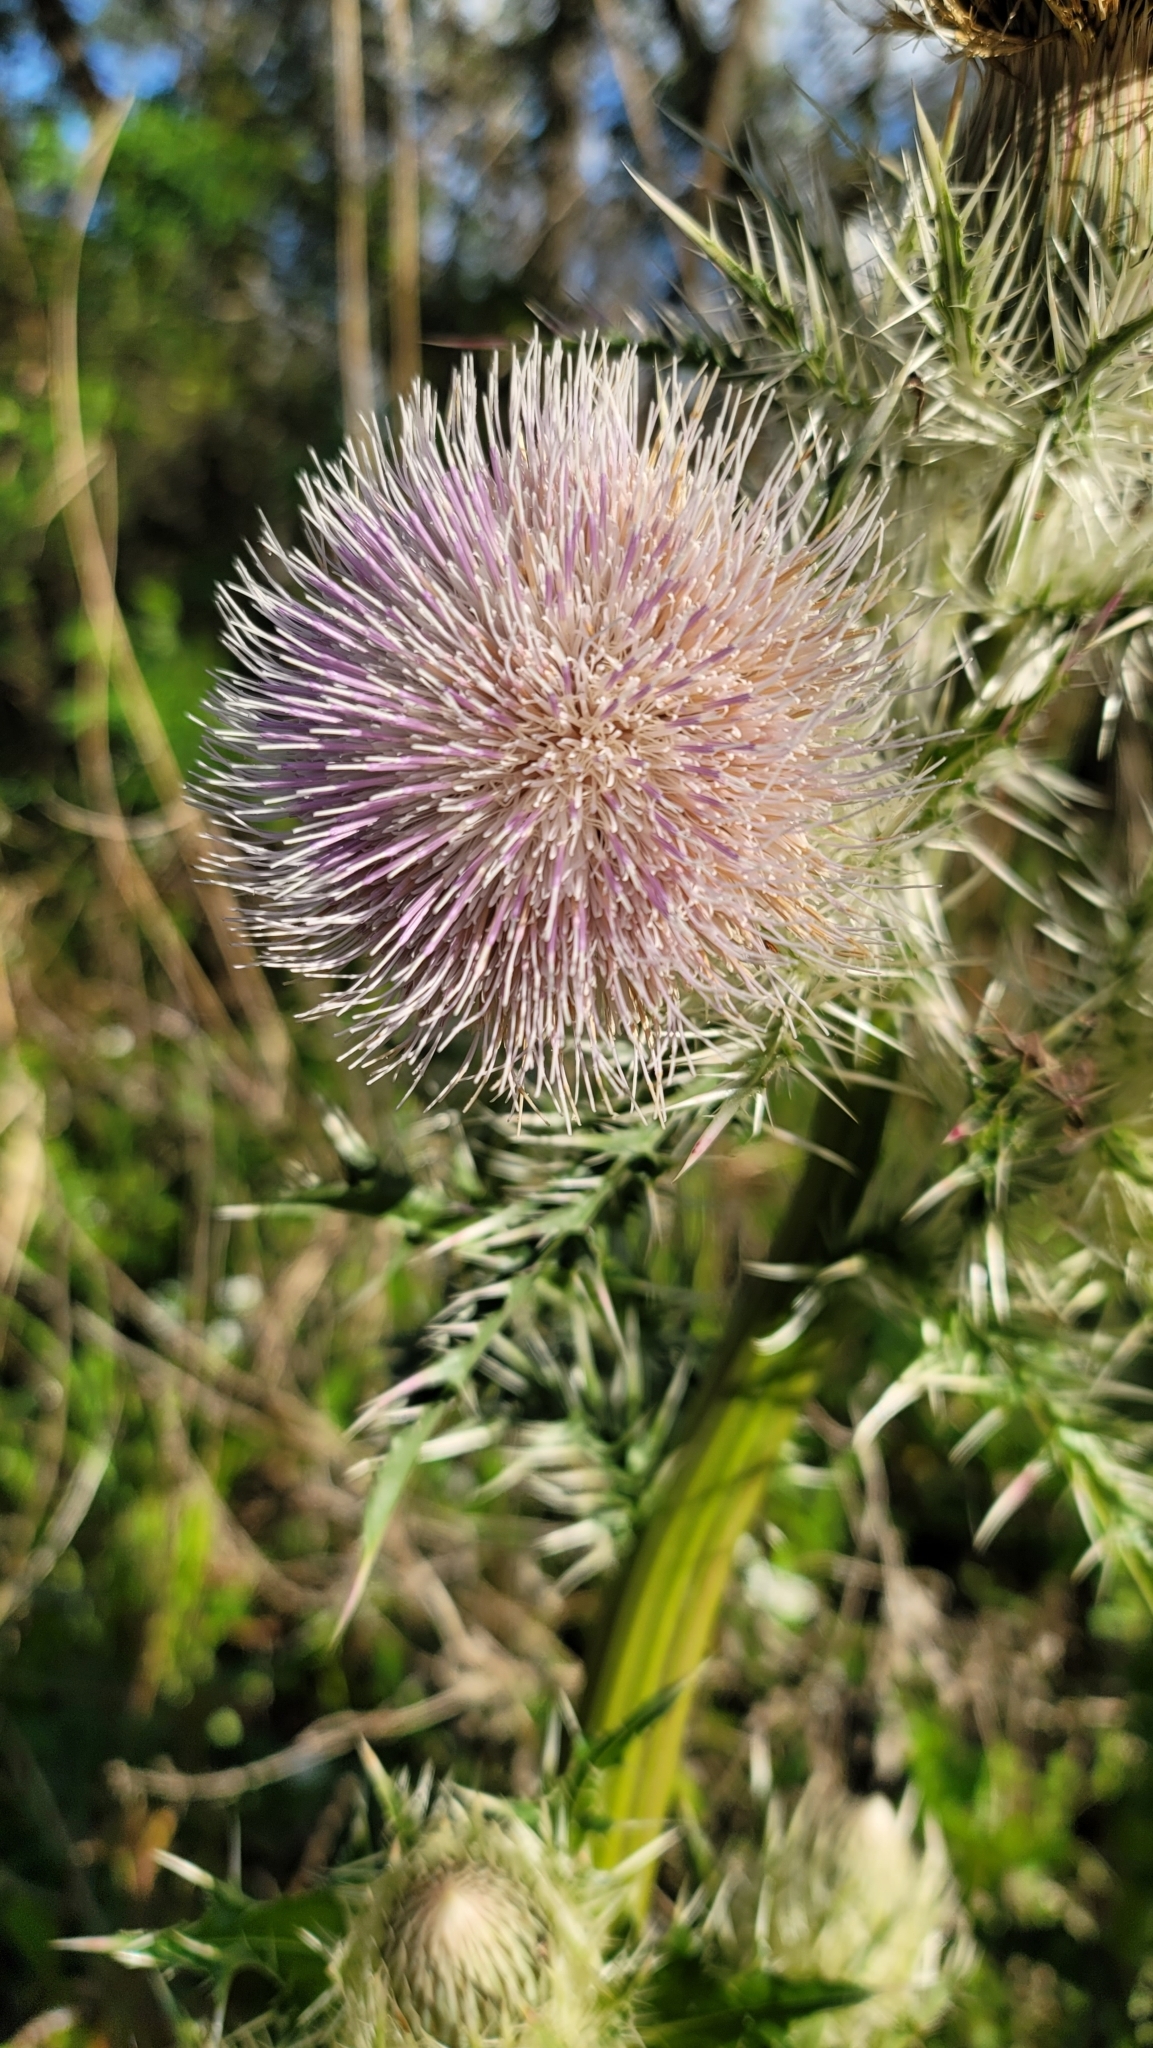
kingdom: Plantae
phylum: Tracheophyta
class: Magnoliopsida
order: Asterales
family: Asteraceae
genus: Cirsium
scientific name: Cirsium horridulum
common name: Bristly thistle
